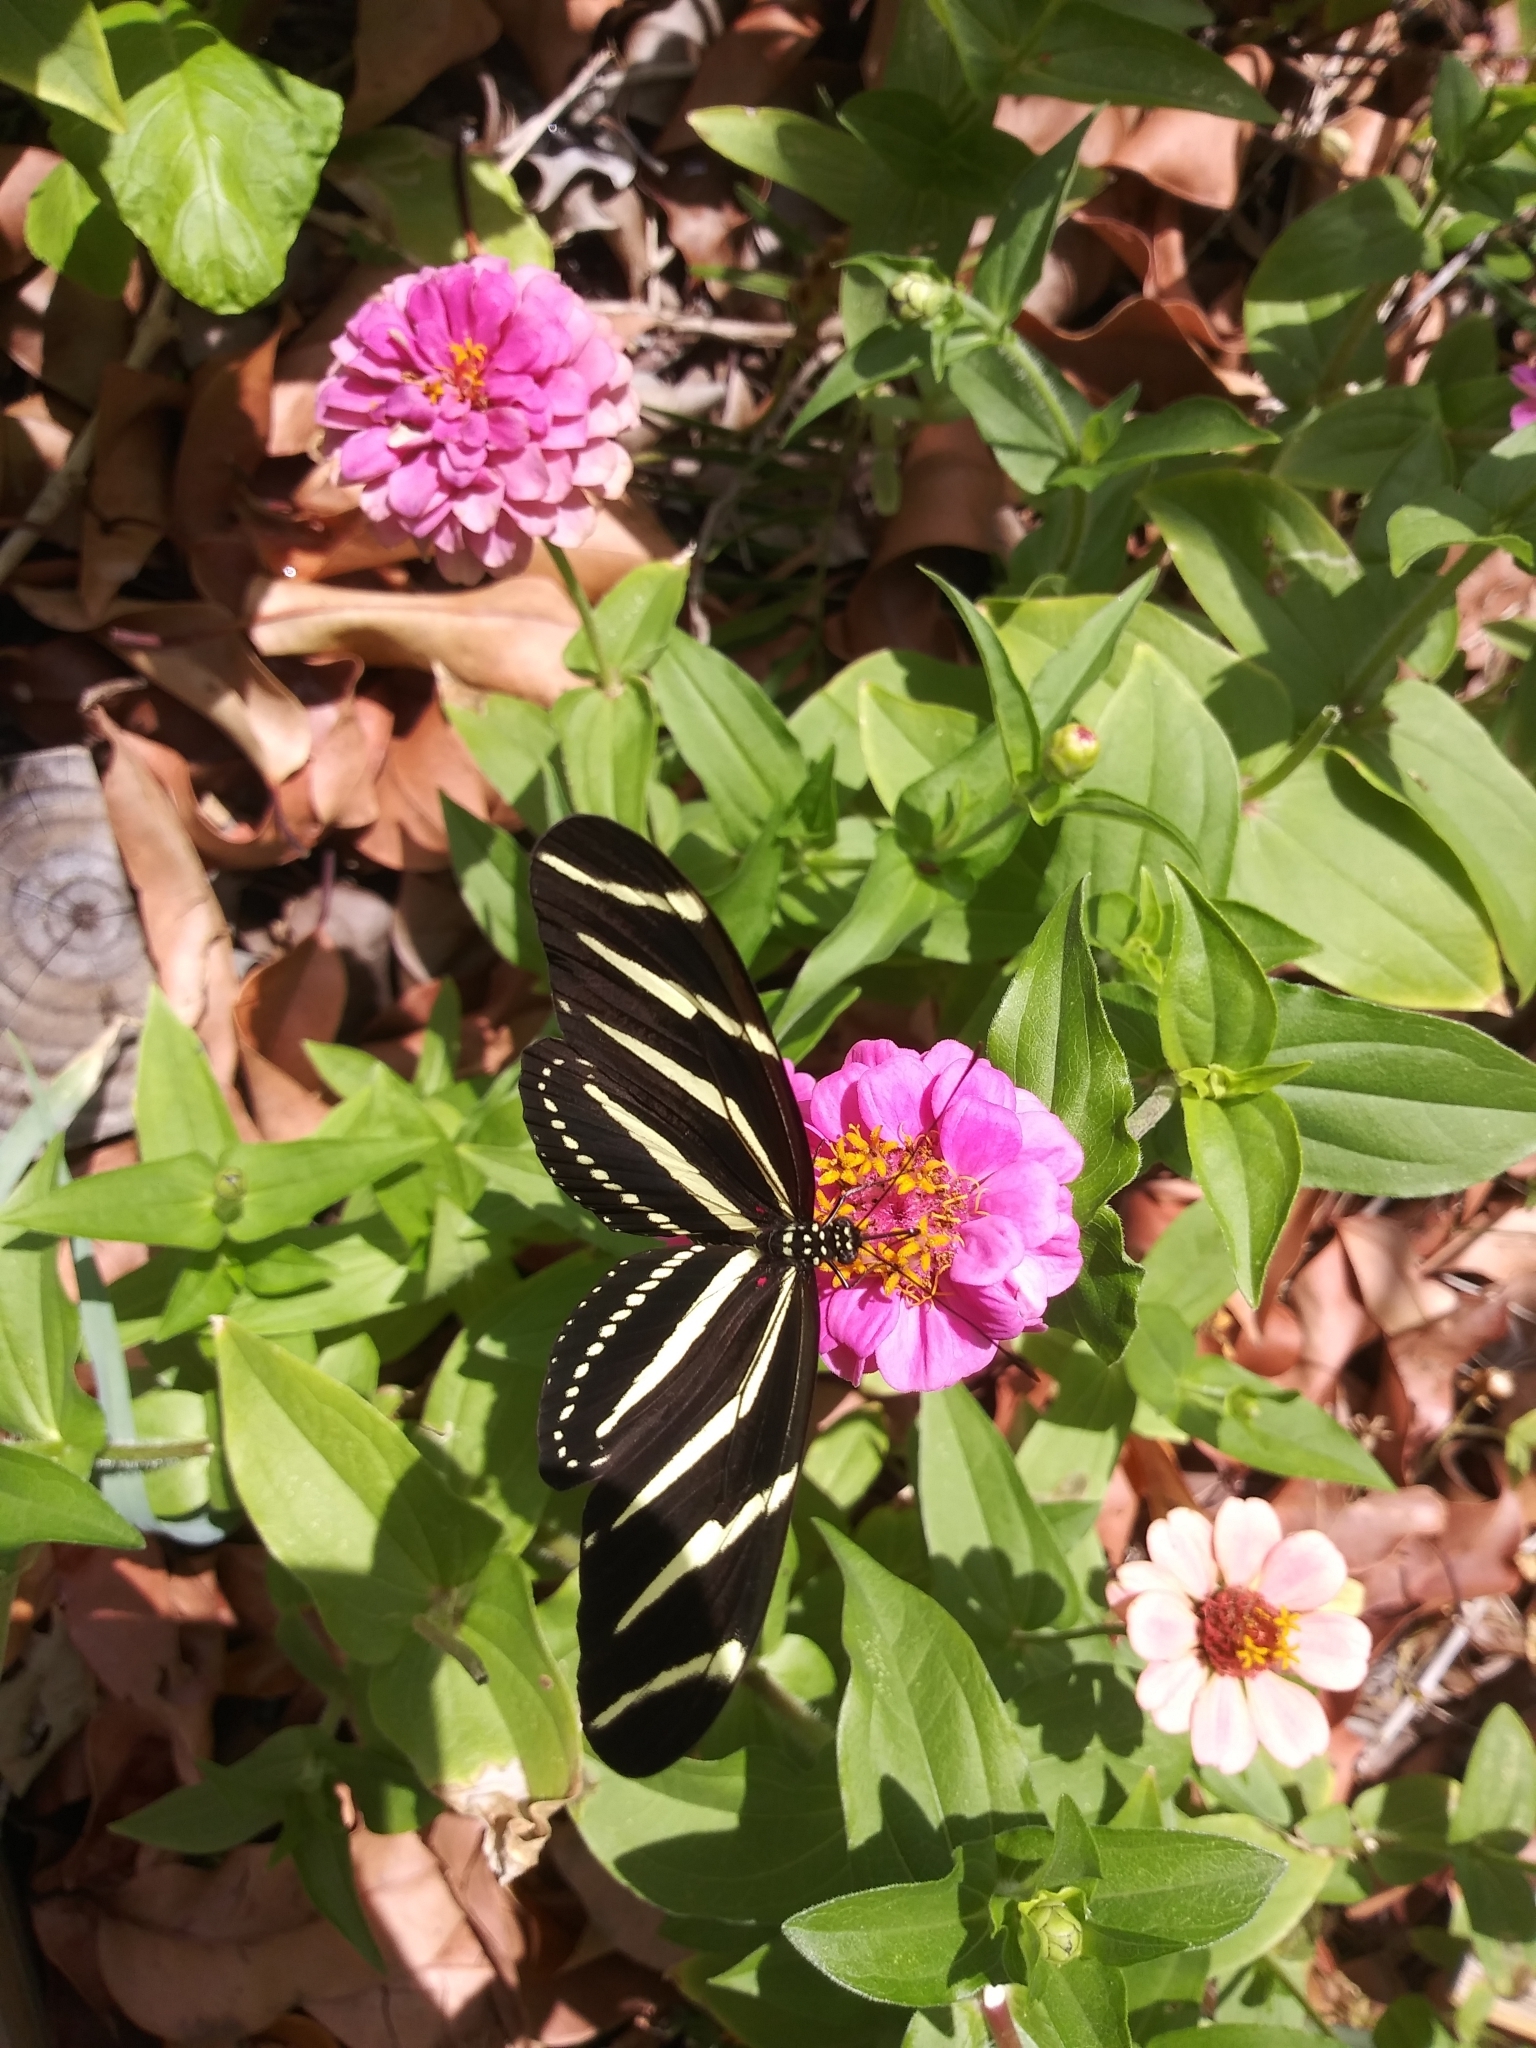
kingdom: Animalia
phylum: Arthropoda
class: Insecta
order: Lepidoptera
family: Nymphalidae
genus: Heliconius
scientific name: Heliconius charithonia
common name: Zebra long wing
